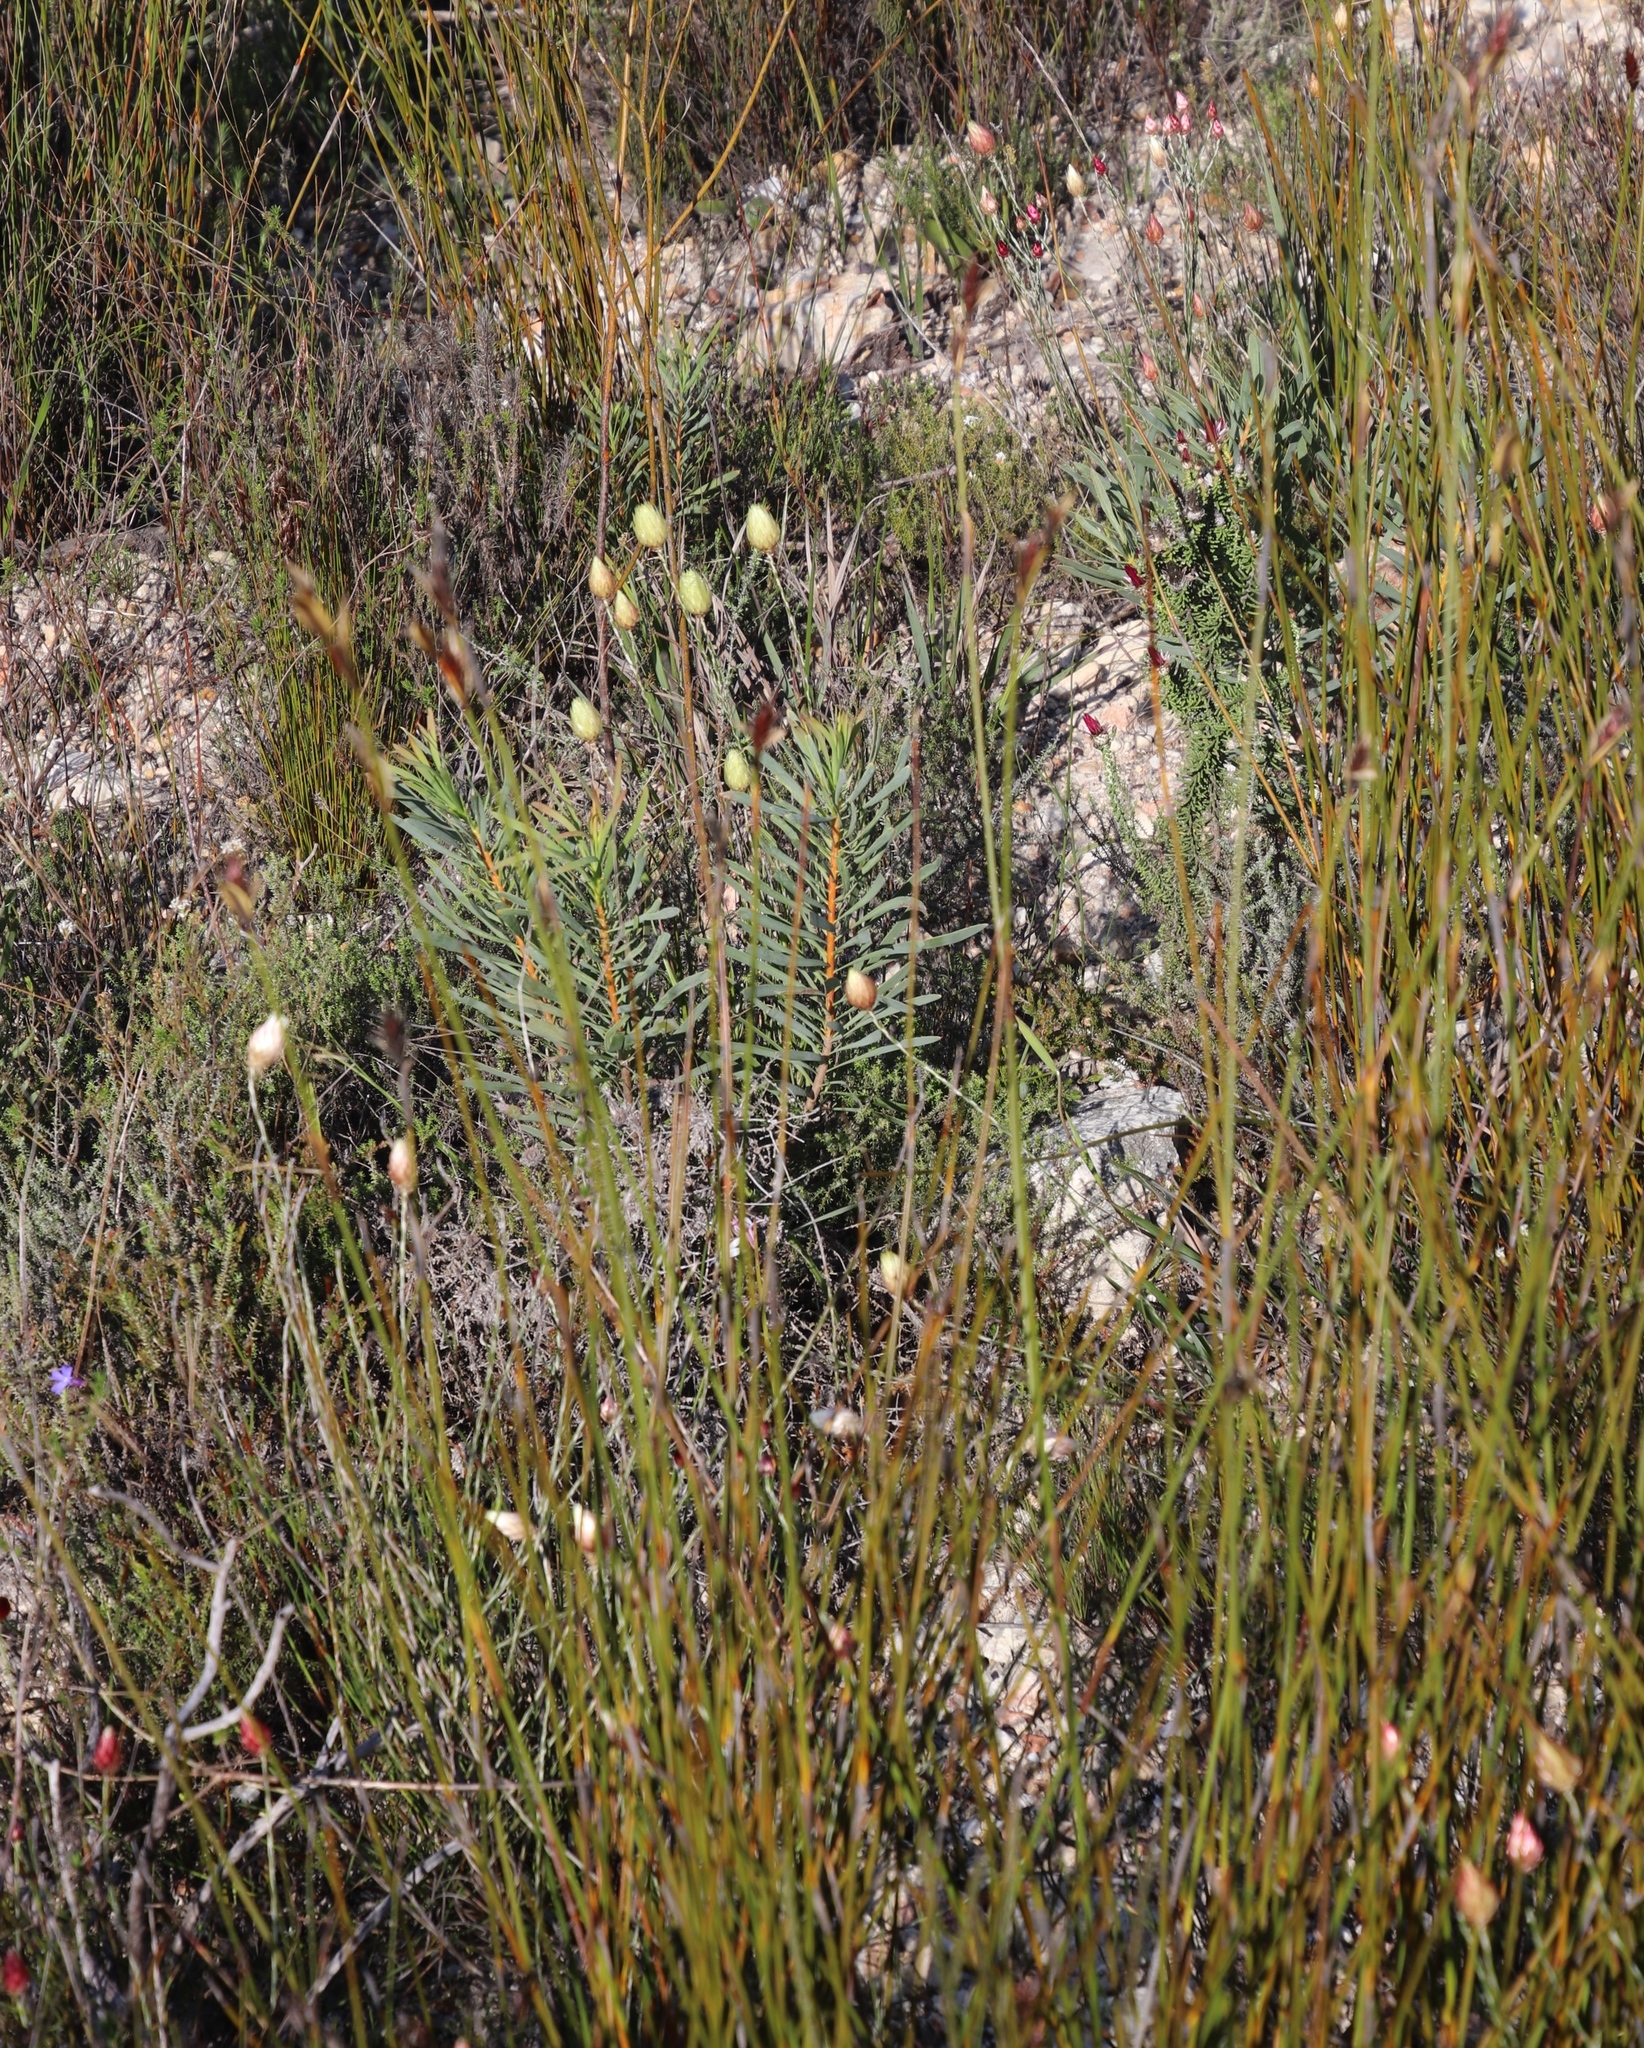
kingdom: Plantae
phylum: Tracheophyta
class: Magnoliopsida
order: Proteales
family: Proteaceae
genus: Protea
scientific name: Protea repens
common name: Sugarbush
